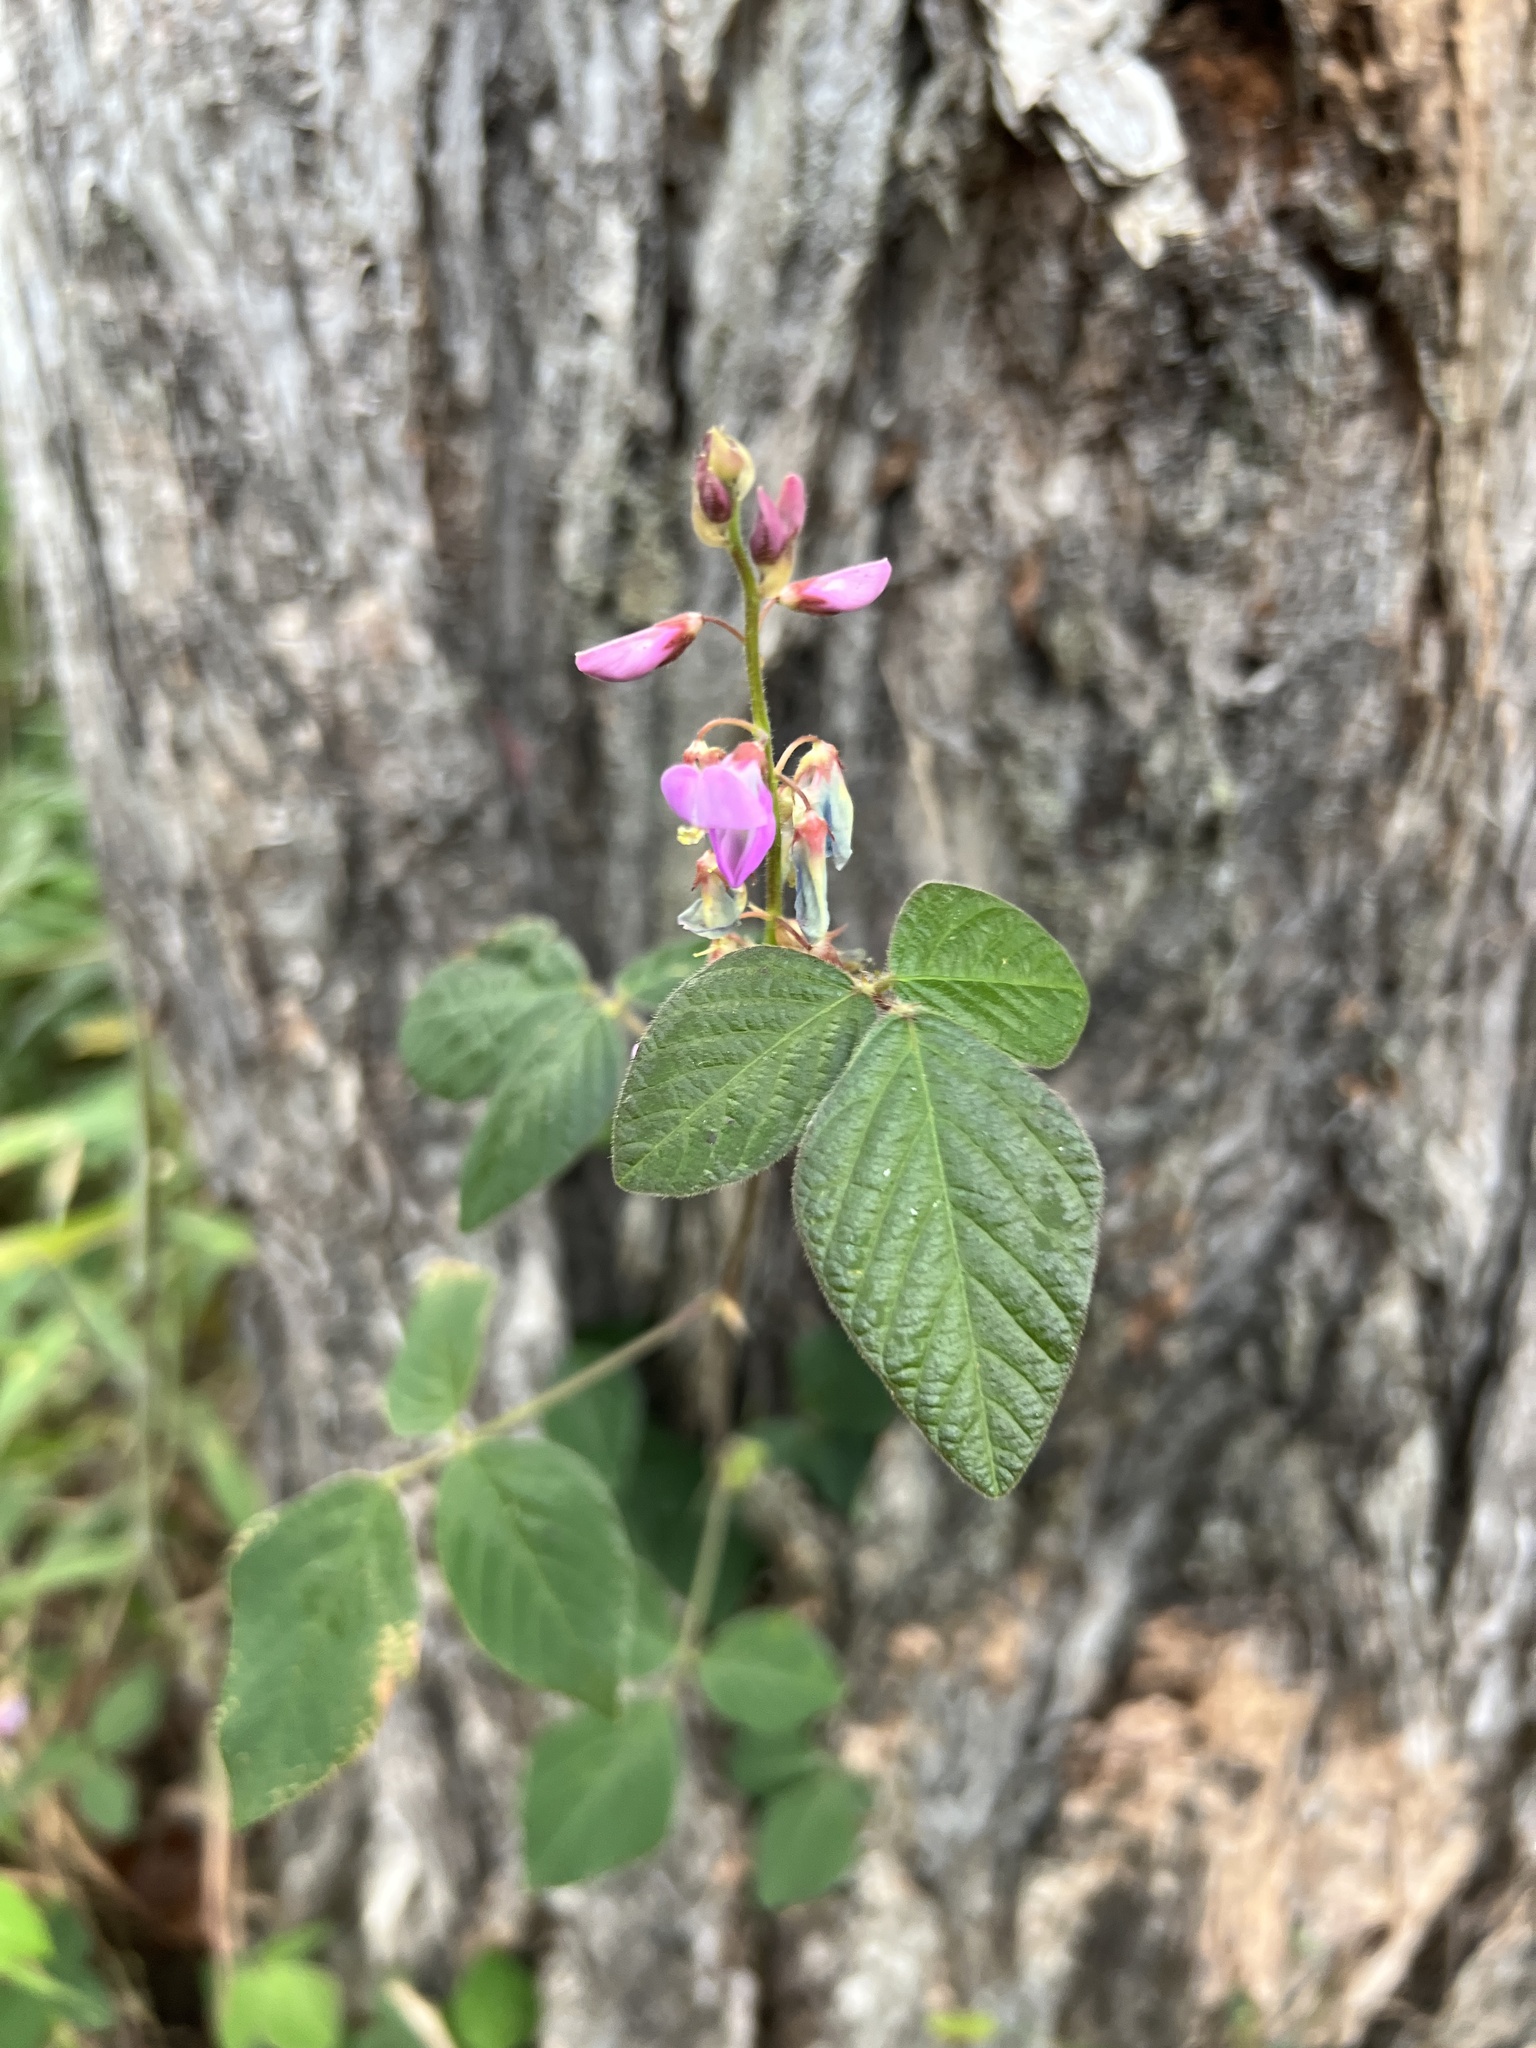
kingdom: Plantae
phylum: Tracheophyta
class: Magnoliopsida
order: Fabales
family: Fabaceae
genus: Desmodium
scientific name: Desmodium intortum
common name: Greenleaf ticktrefoil
